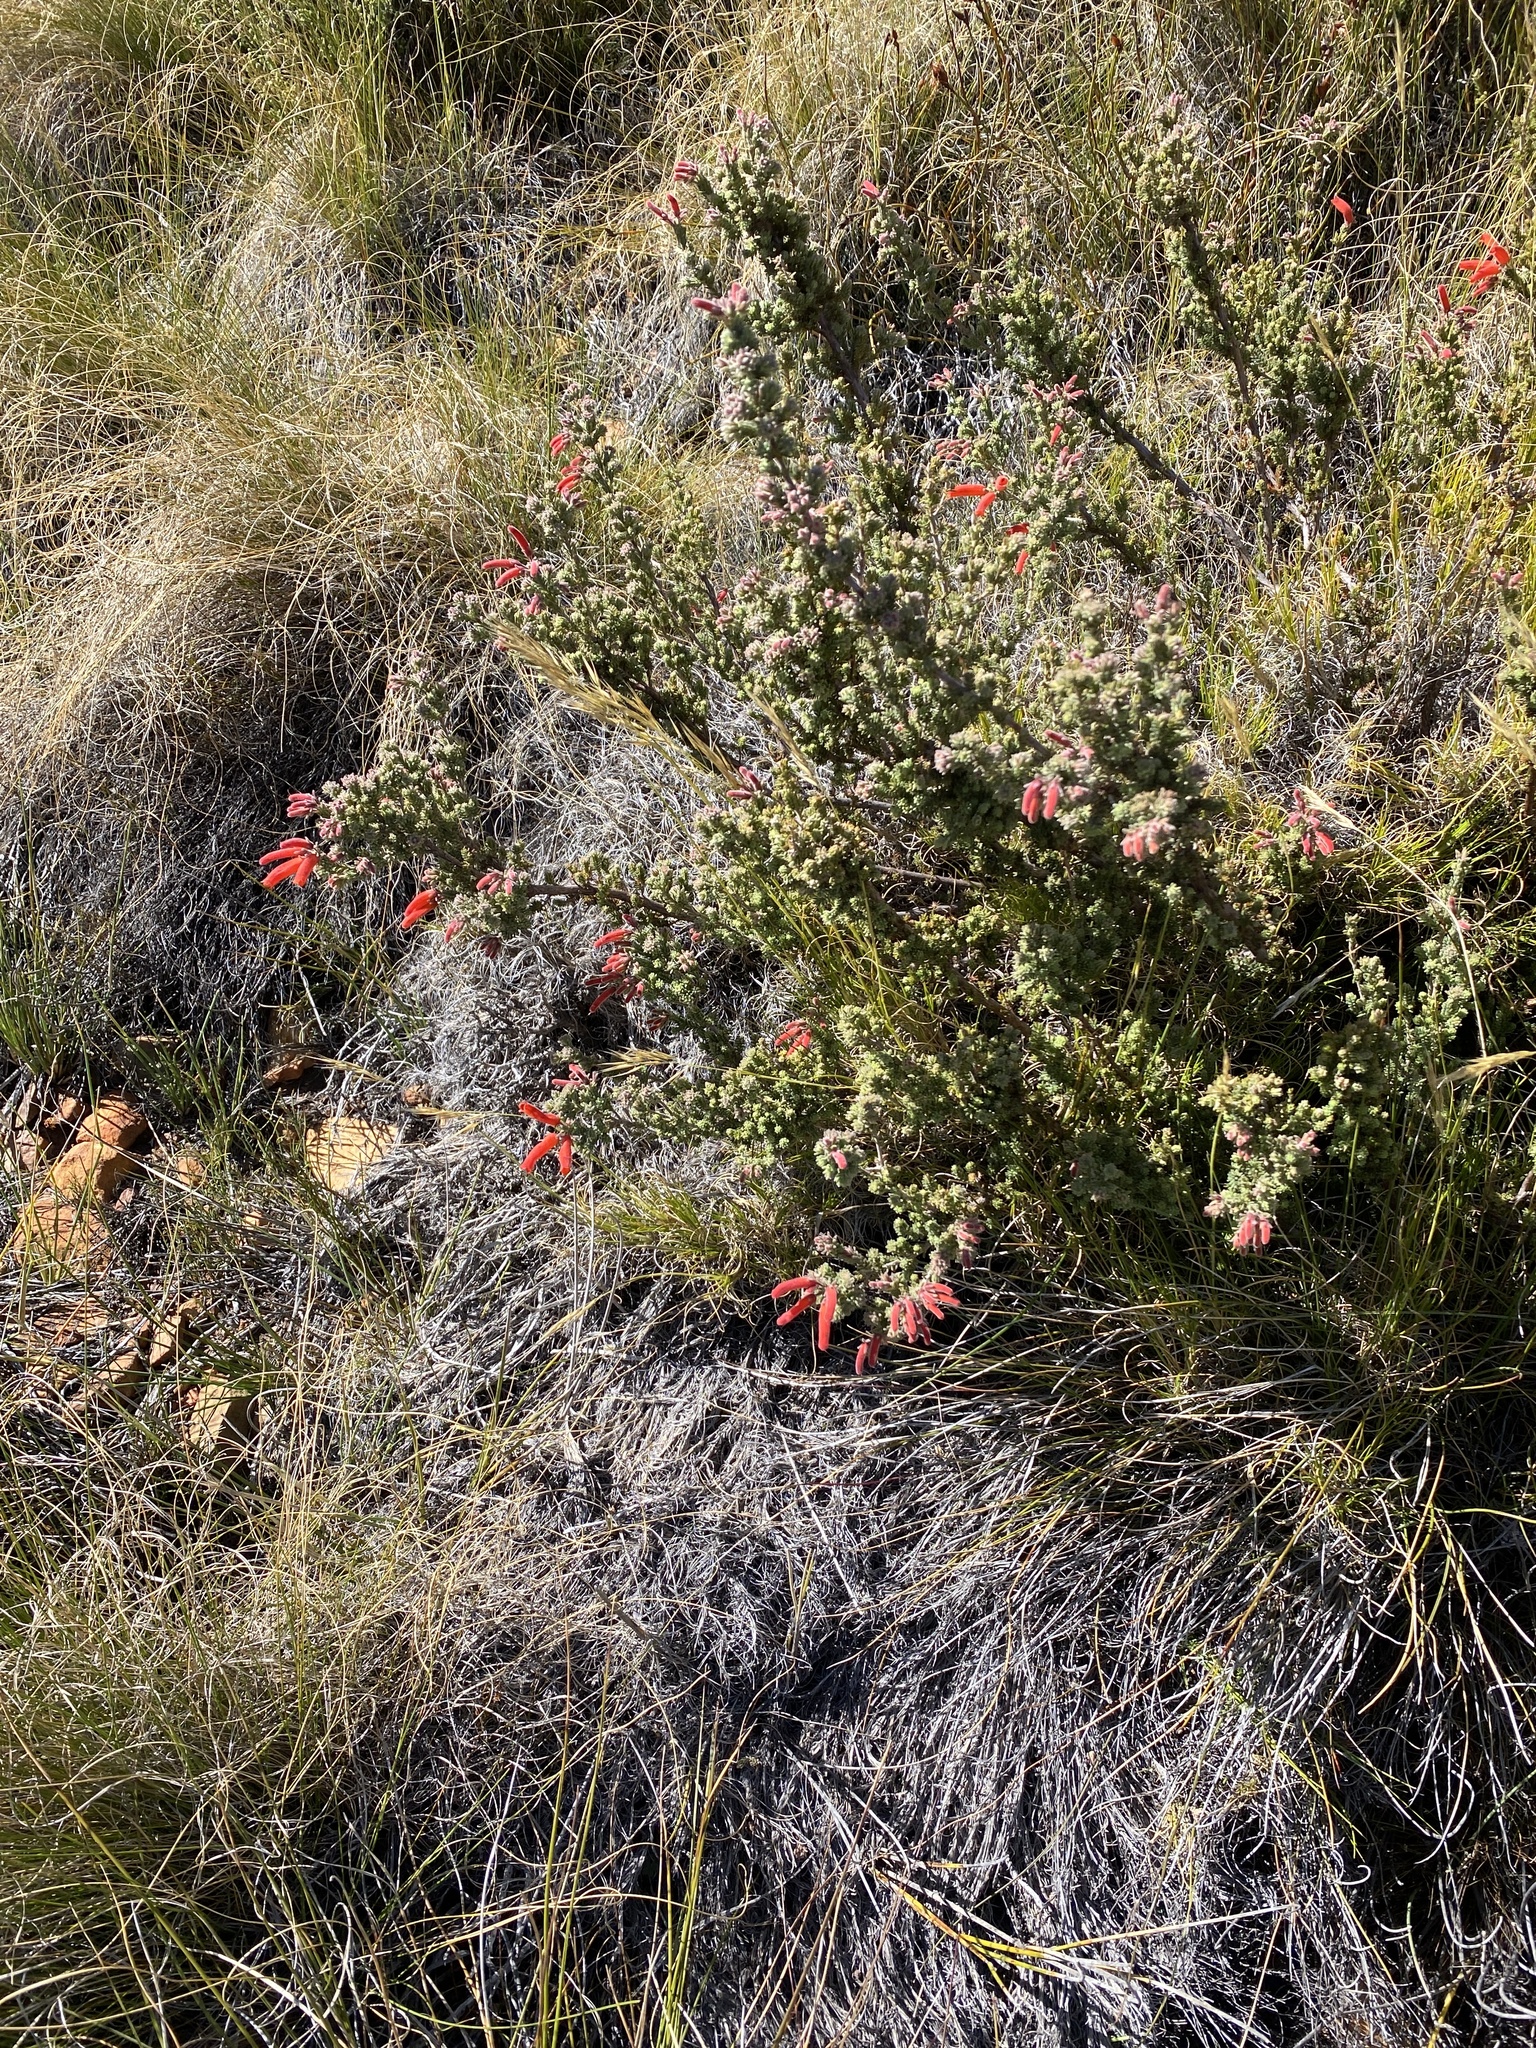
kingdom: Plantae
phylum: Tracheophyta
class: Magnoliopsida
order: Ericales
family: Ericaceae
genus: Erica
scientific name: Erica tumida
